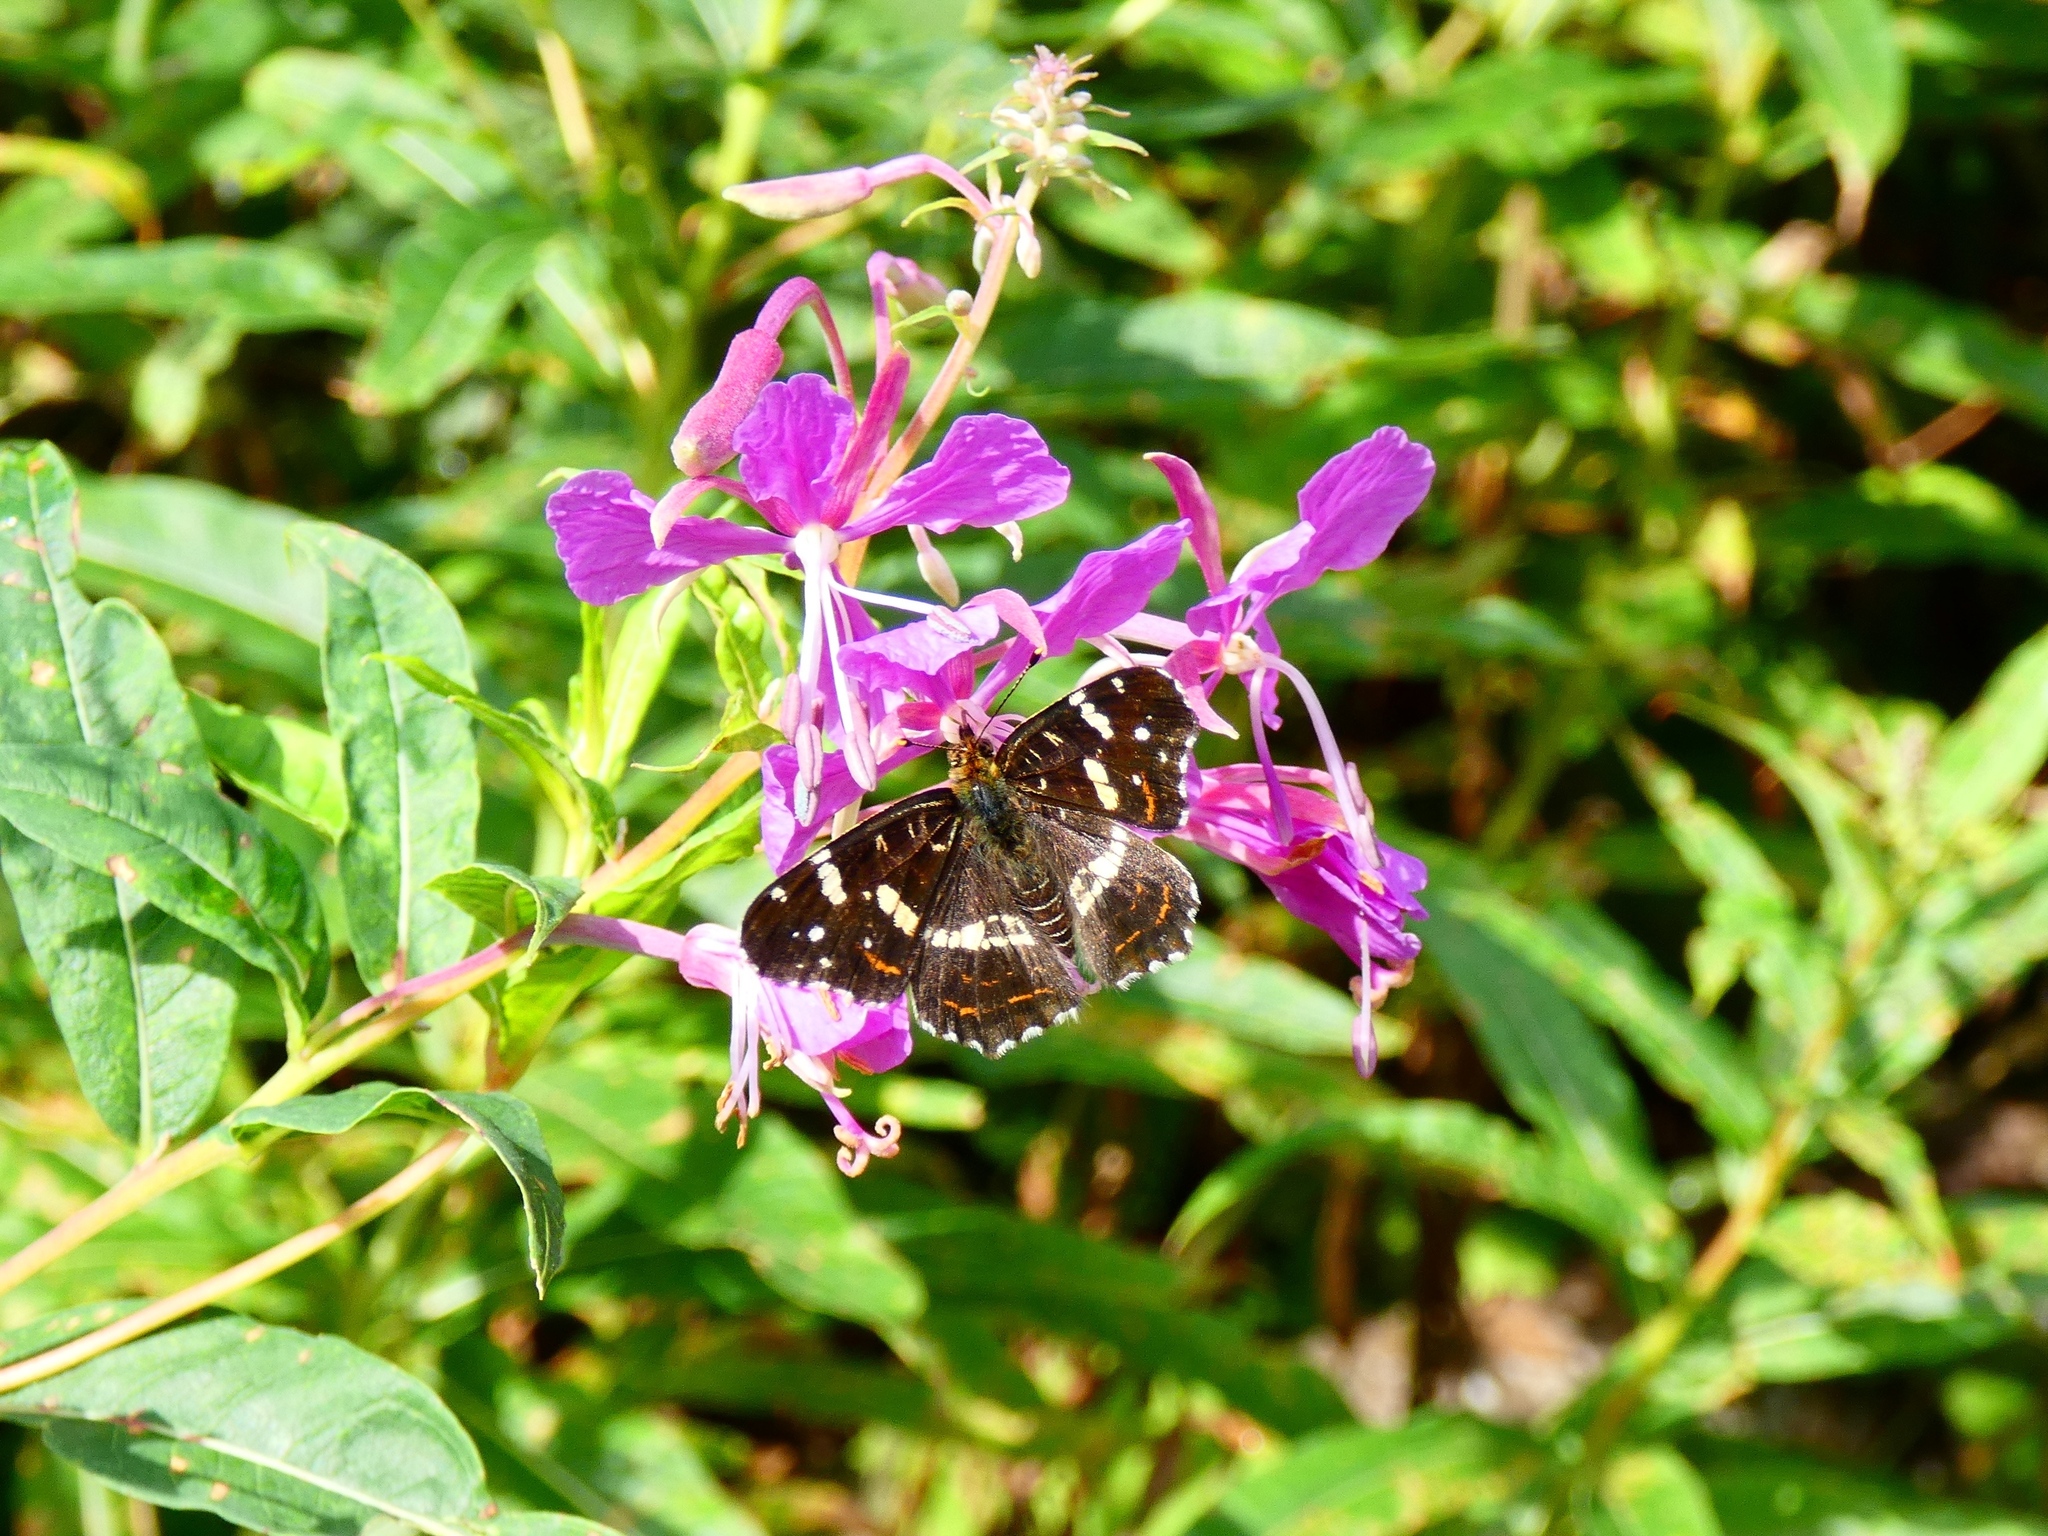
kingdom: Animalia
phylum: Arthropoda
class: Insecta
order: Lepidoptera
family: Nymphalidae
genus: Araschnia
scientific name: Araschnia levana
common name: Map butterfly
